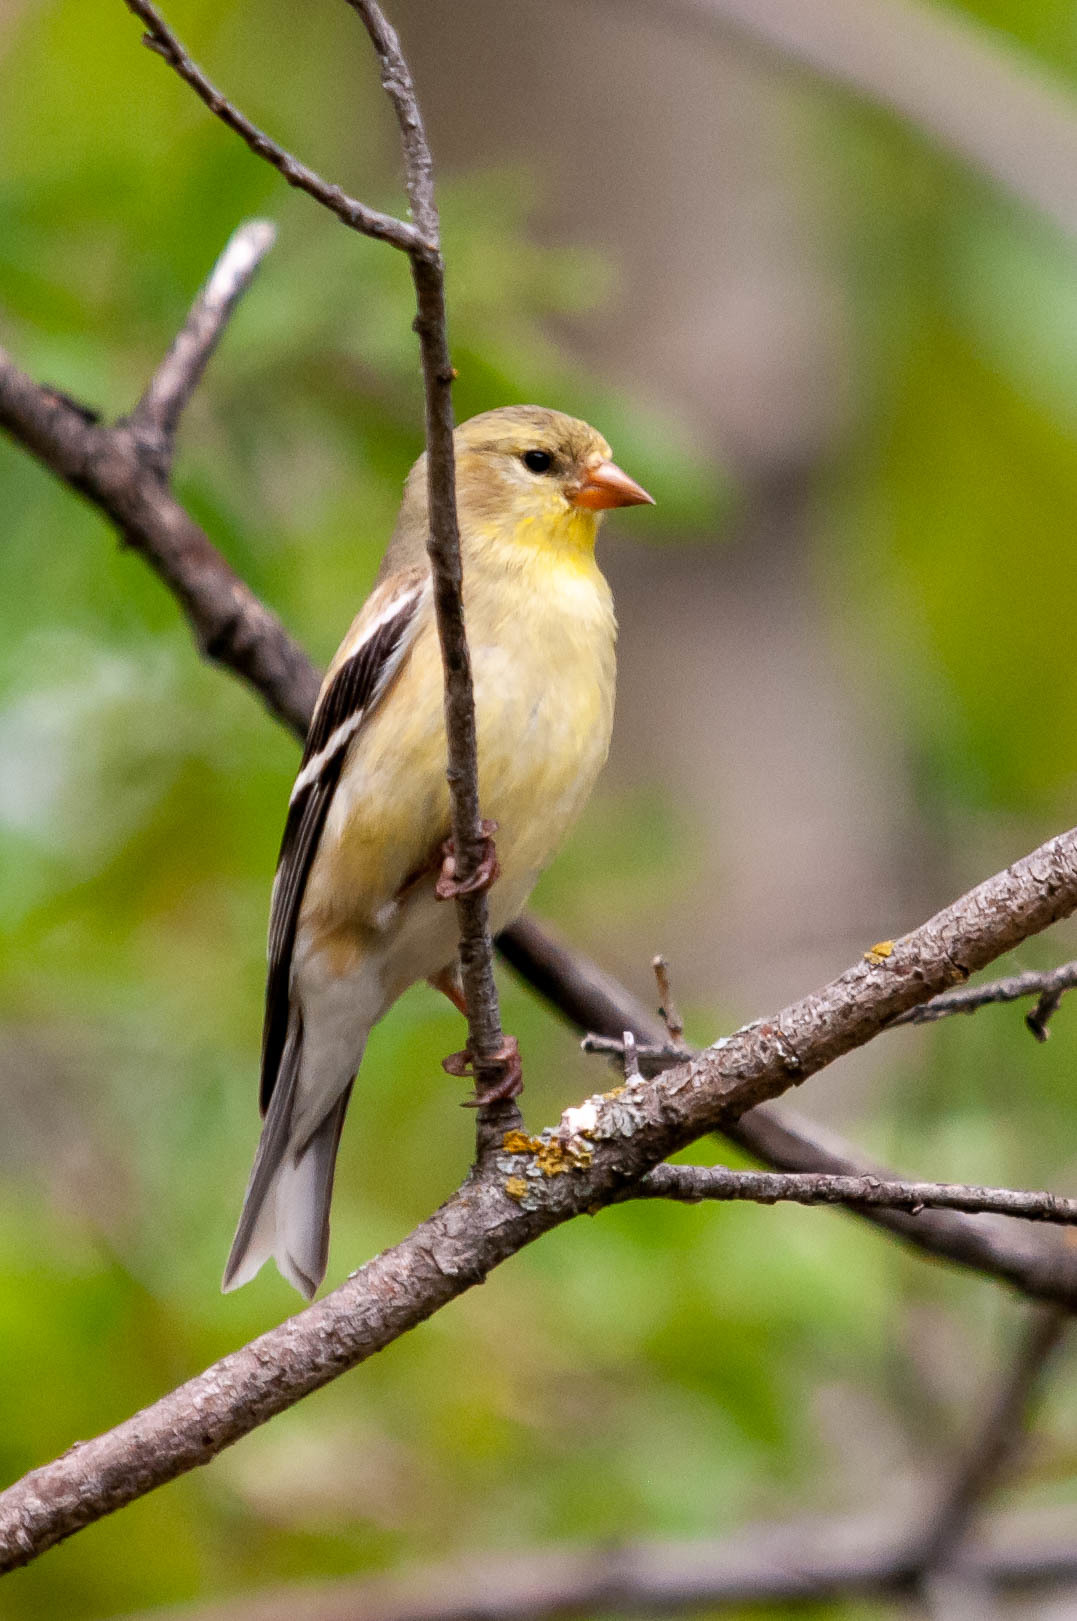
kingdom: Animalia
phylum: Chordata
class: Aves
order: Passeriformes
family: Fringillidae
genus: Spinus
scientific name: Spinus tristis
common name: American goldfinch
